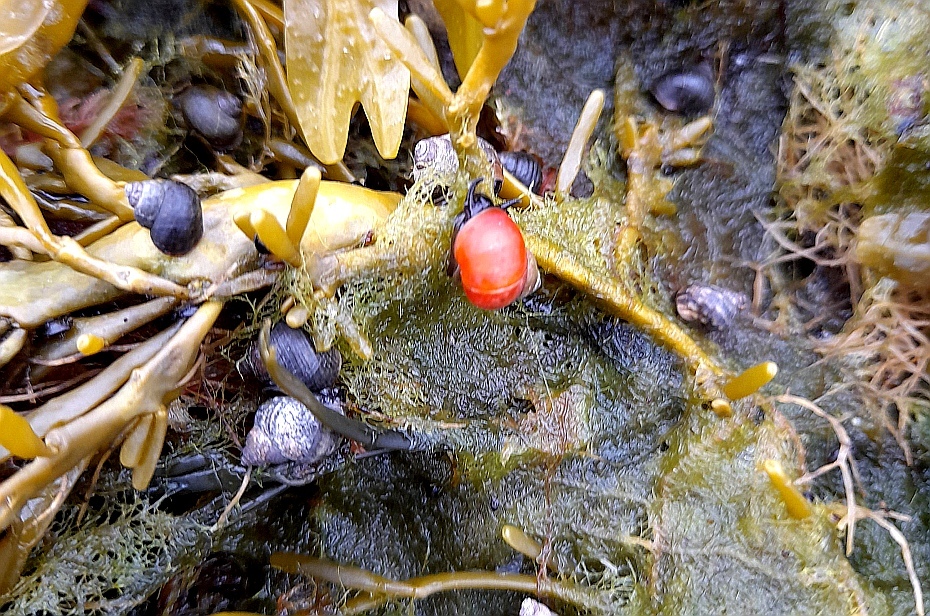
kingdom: Animalia
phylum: Mollusca
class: Gastropoda
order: Littorinimorpha
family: Littorinidae
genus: Littorina
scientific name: Littorina saxatilis
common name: Black-lined periwinkle
